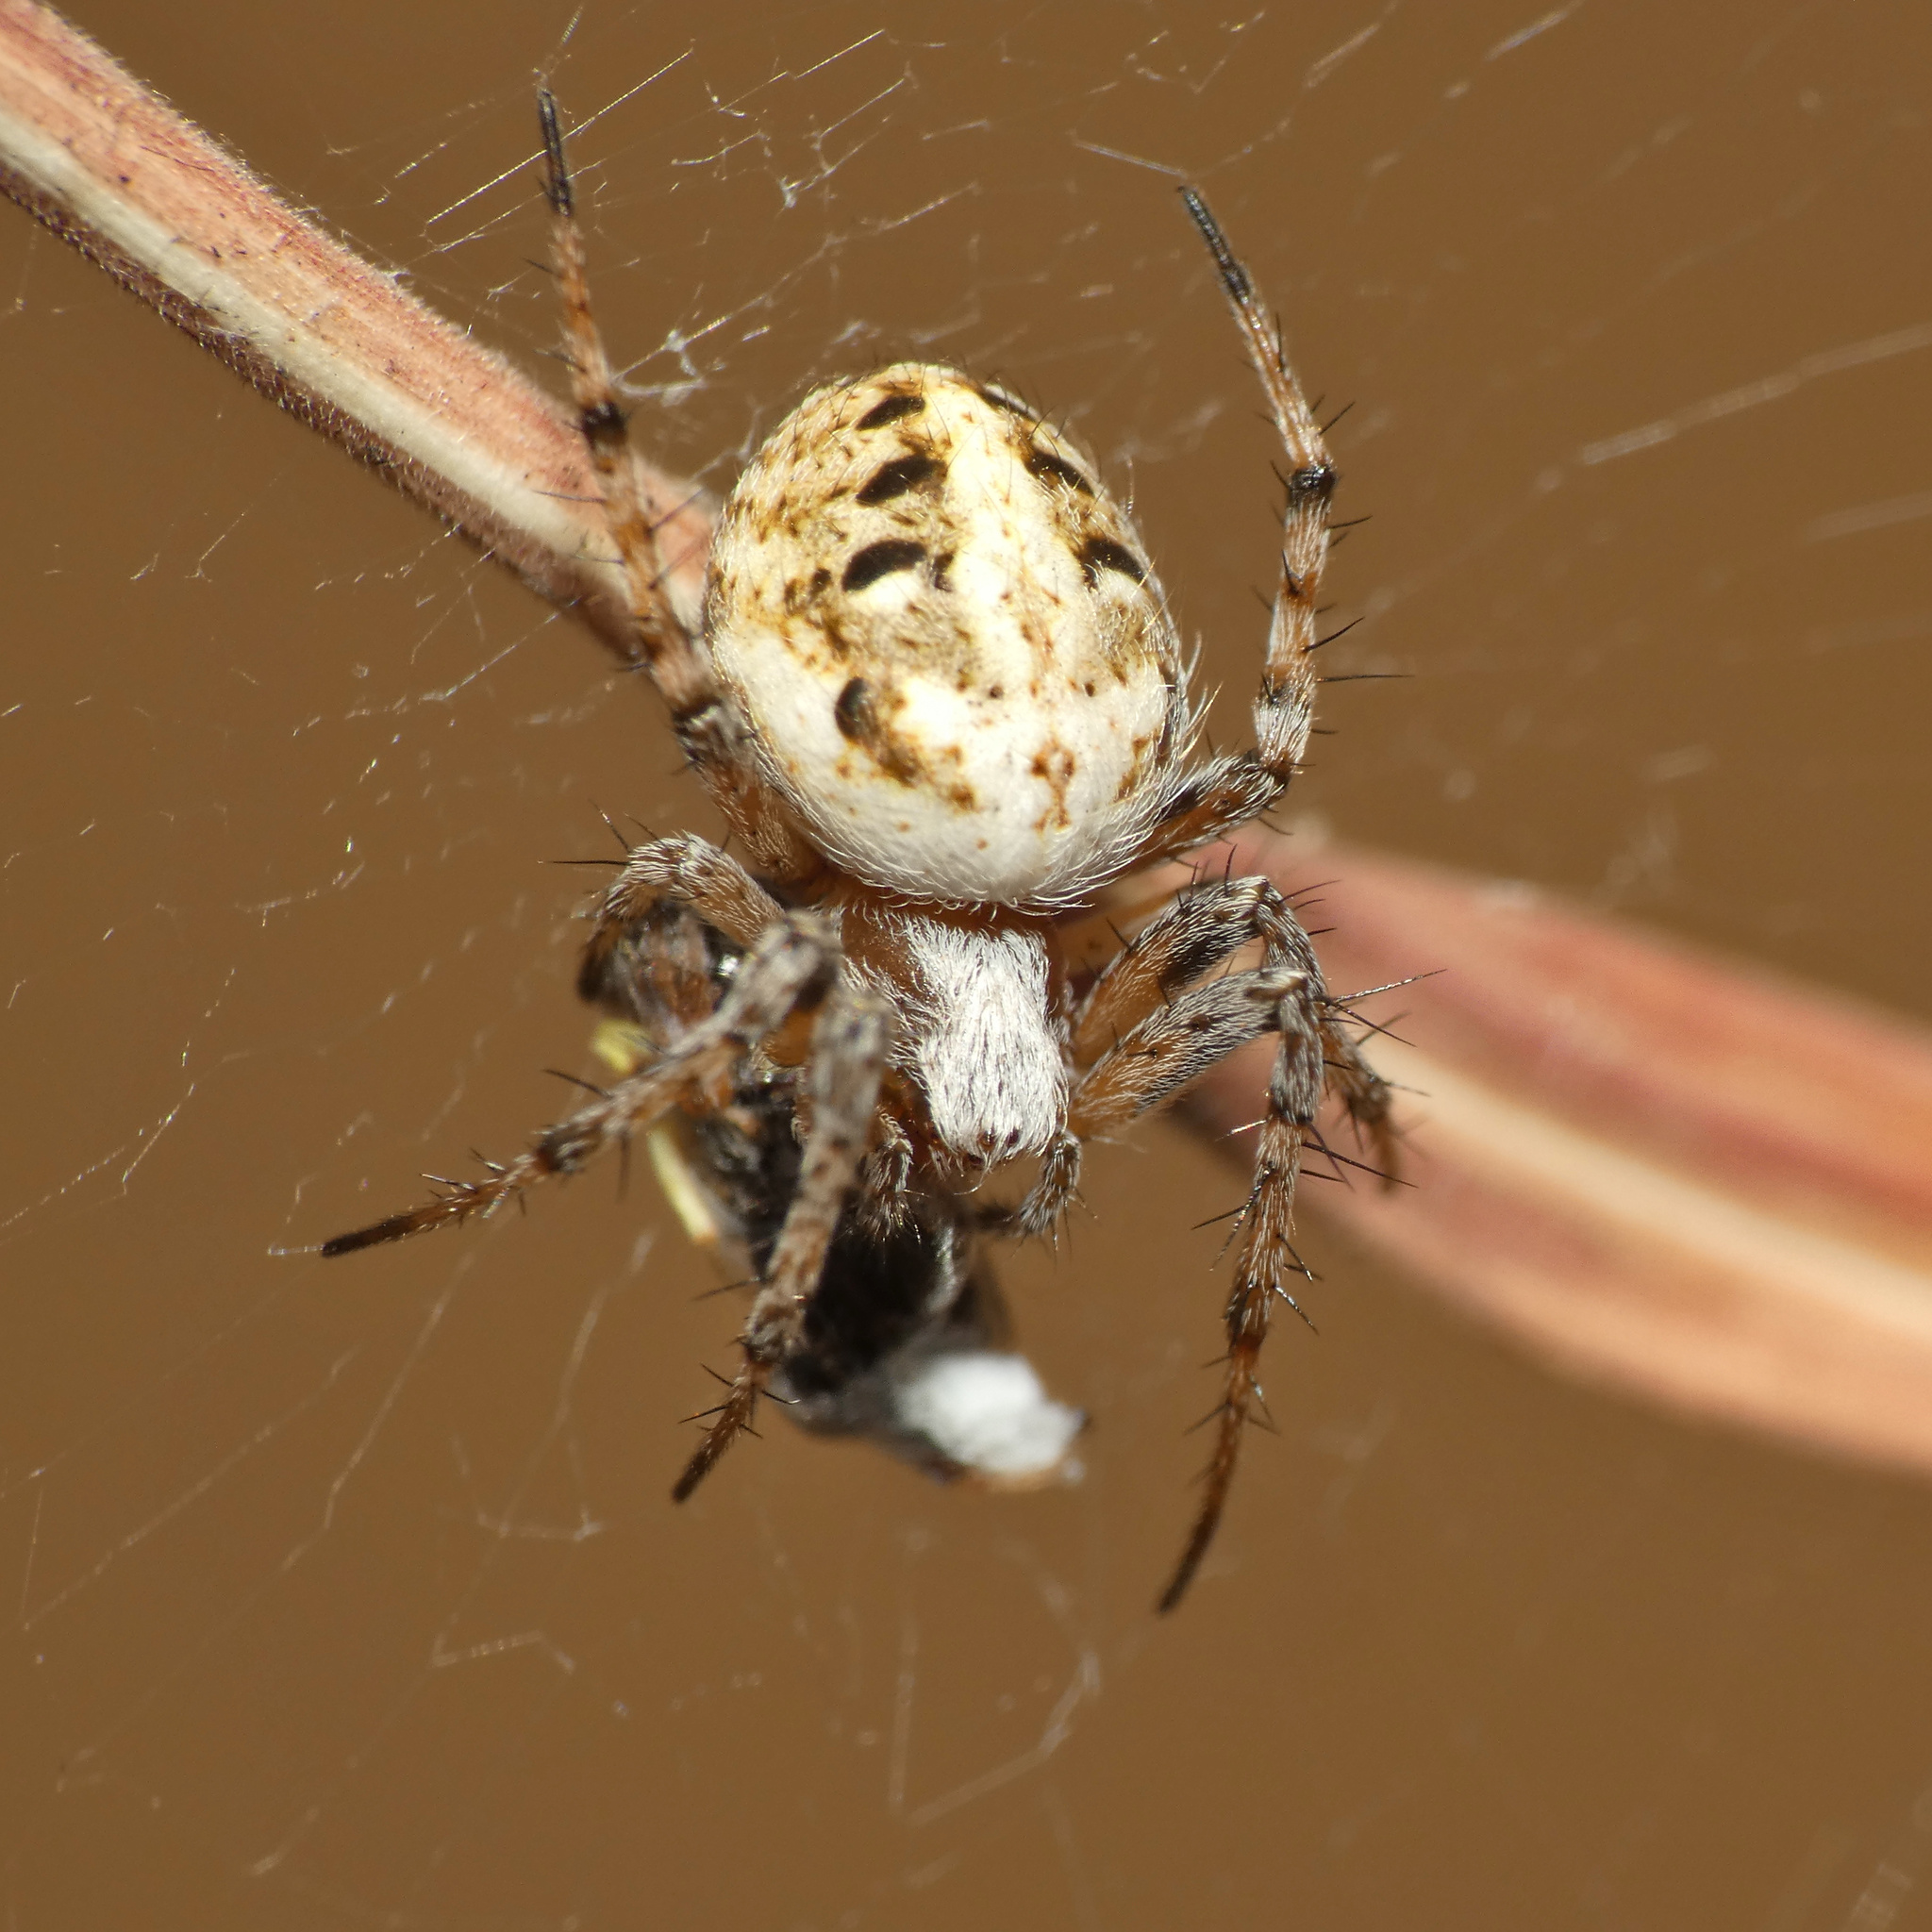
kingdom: Animalia
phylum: Arthropoda
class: Arachnida
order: Araneae
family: Araneidae
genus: Neoscona
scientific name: Neoscona theisi
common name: Spider
